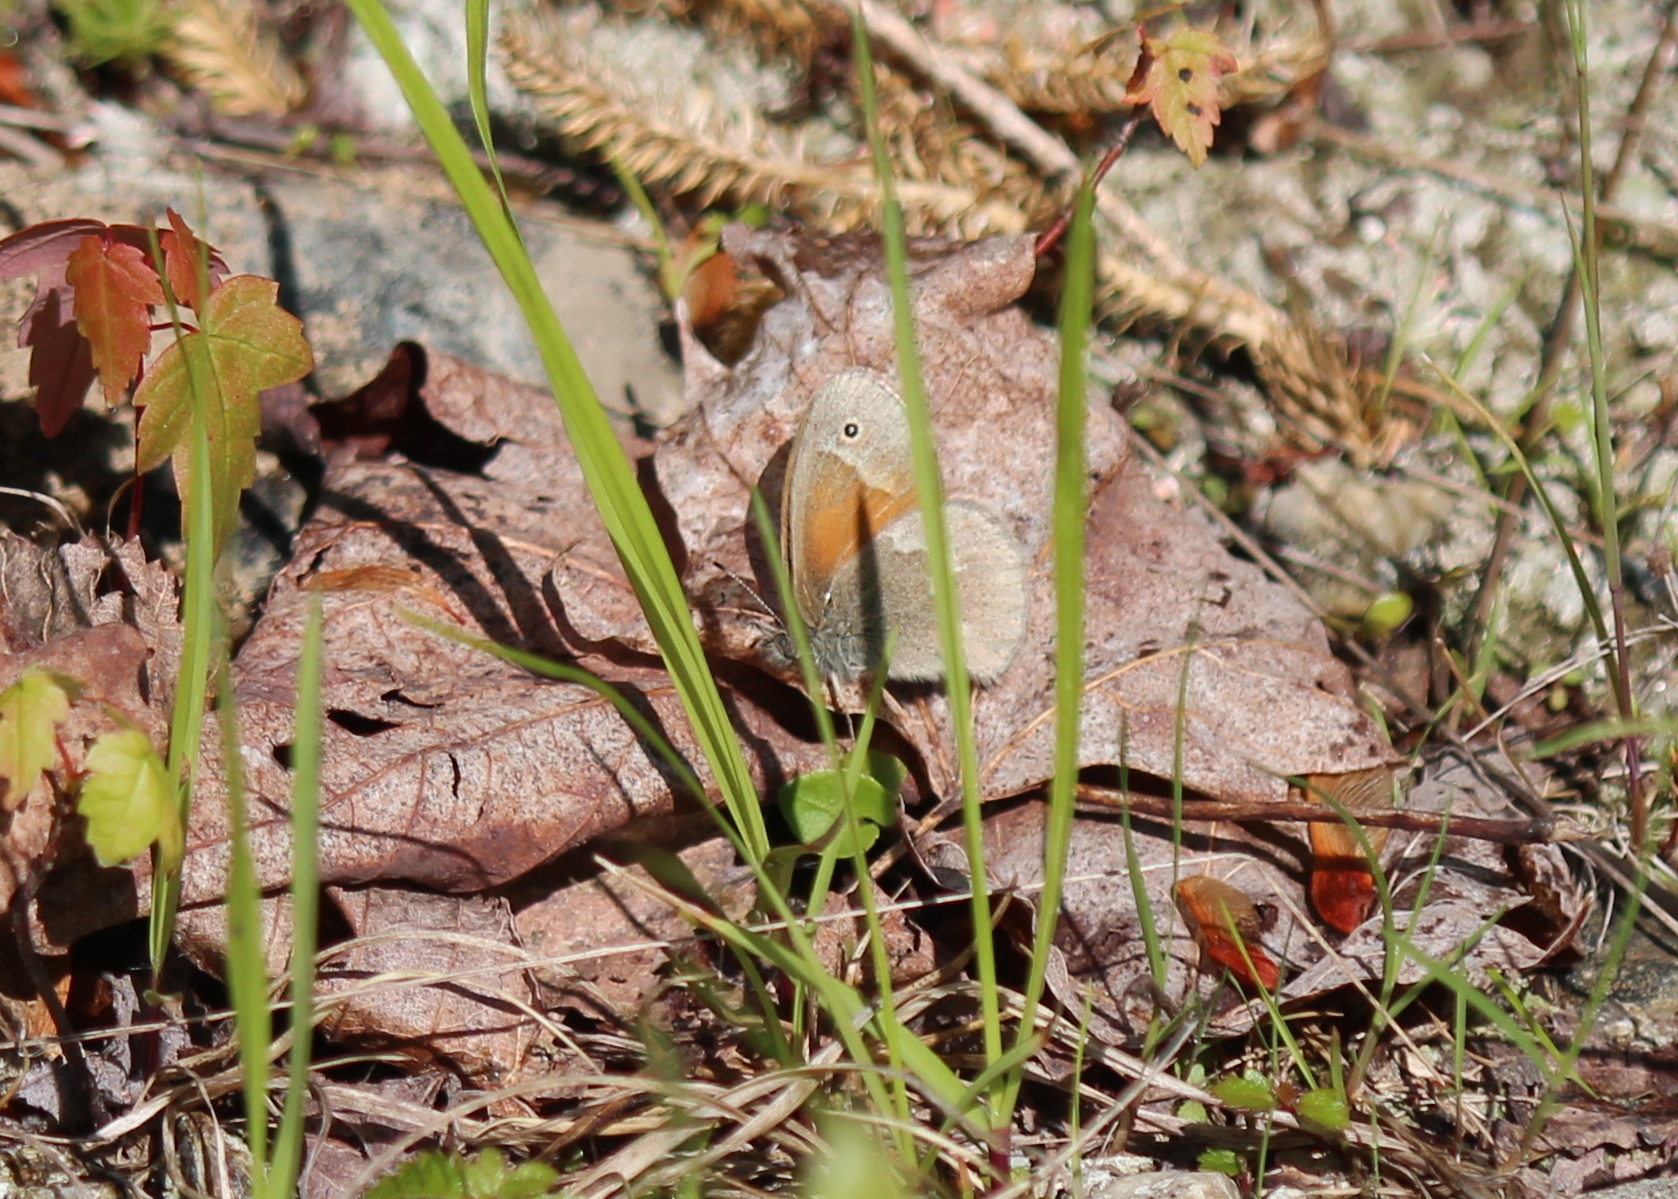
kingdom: Animalia
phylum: Arthropoda
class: Insecta
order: Lepidoptera
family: Nymphalidae
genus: Coenonympha
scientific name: Coenonympha california
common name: Common ringlet
